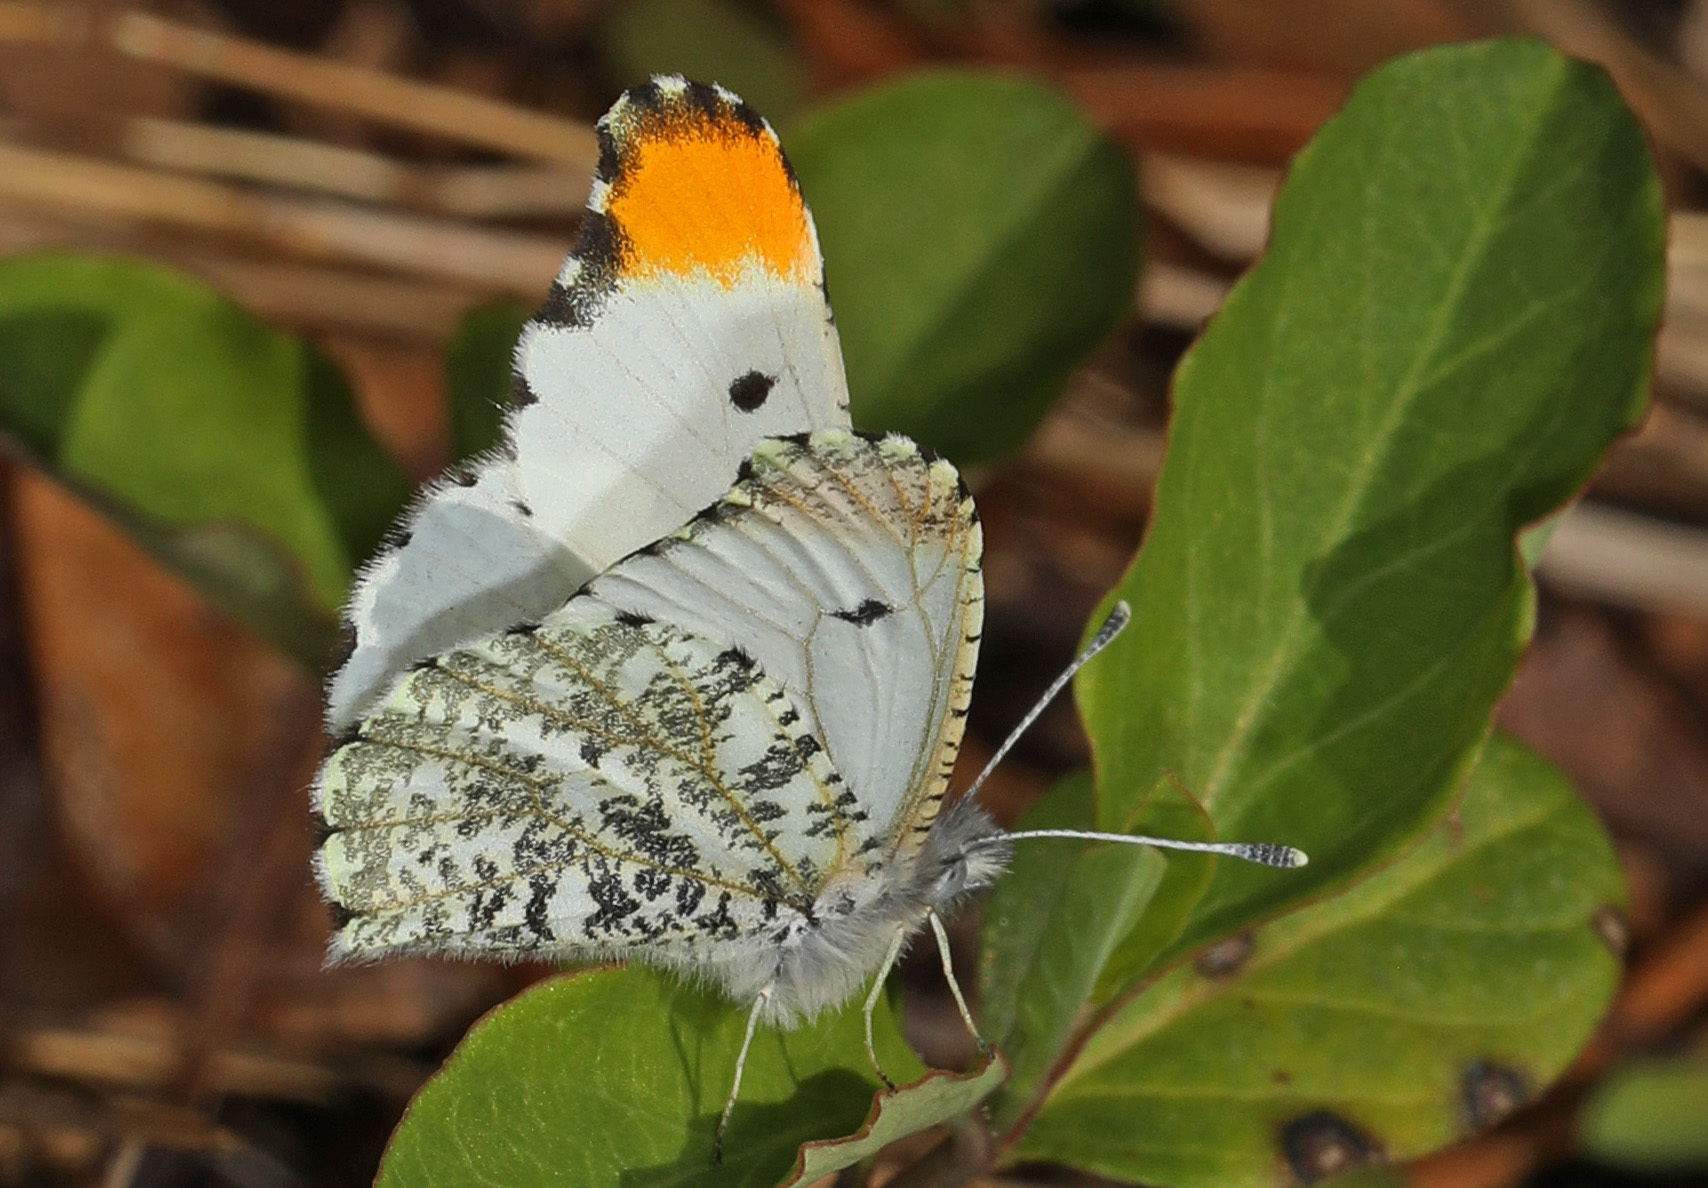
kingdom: Animalia
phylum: Arthropoda
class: Insecta
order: Lepidoptera
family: Pieridae
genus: Anthocharis
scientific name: Anthocharis midea
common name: Falcate orangetip
